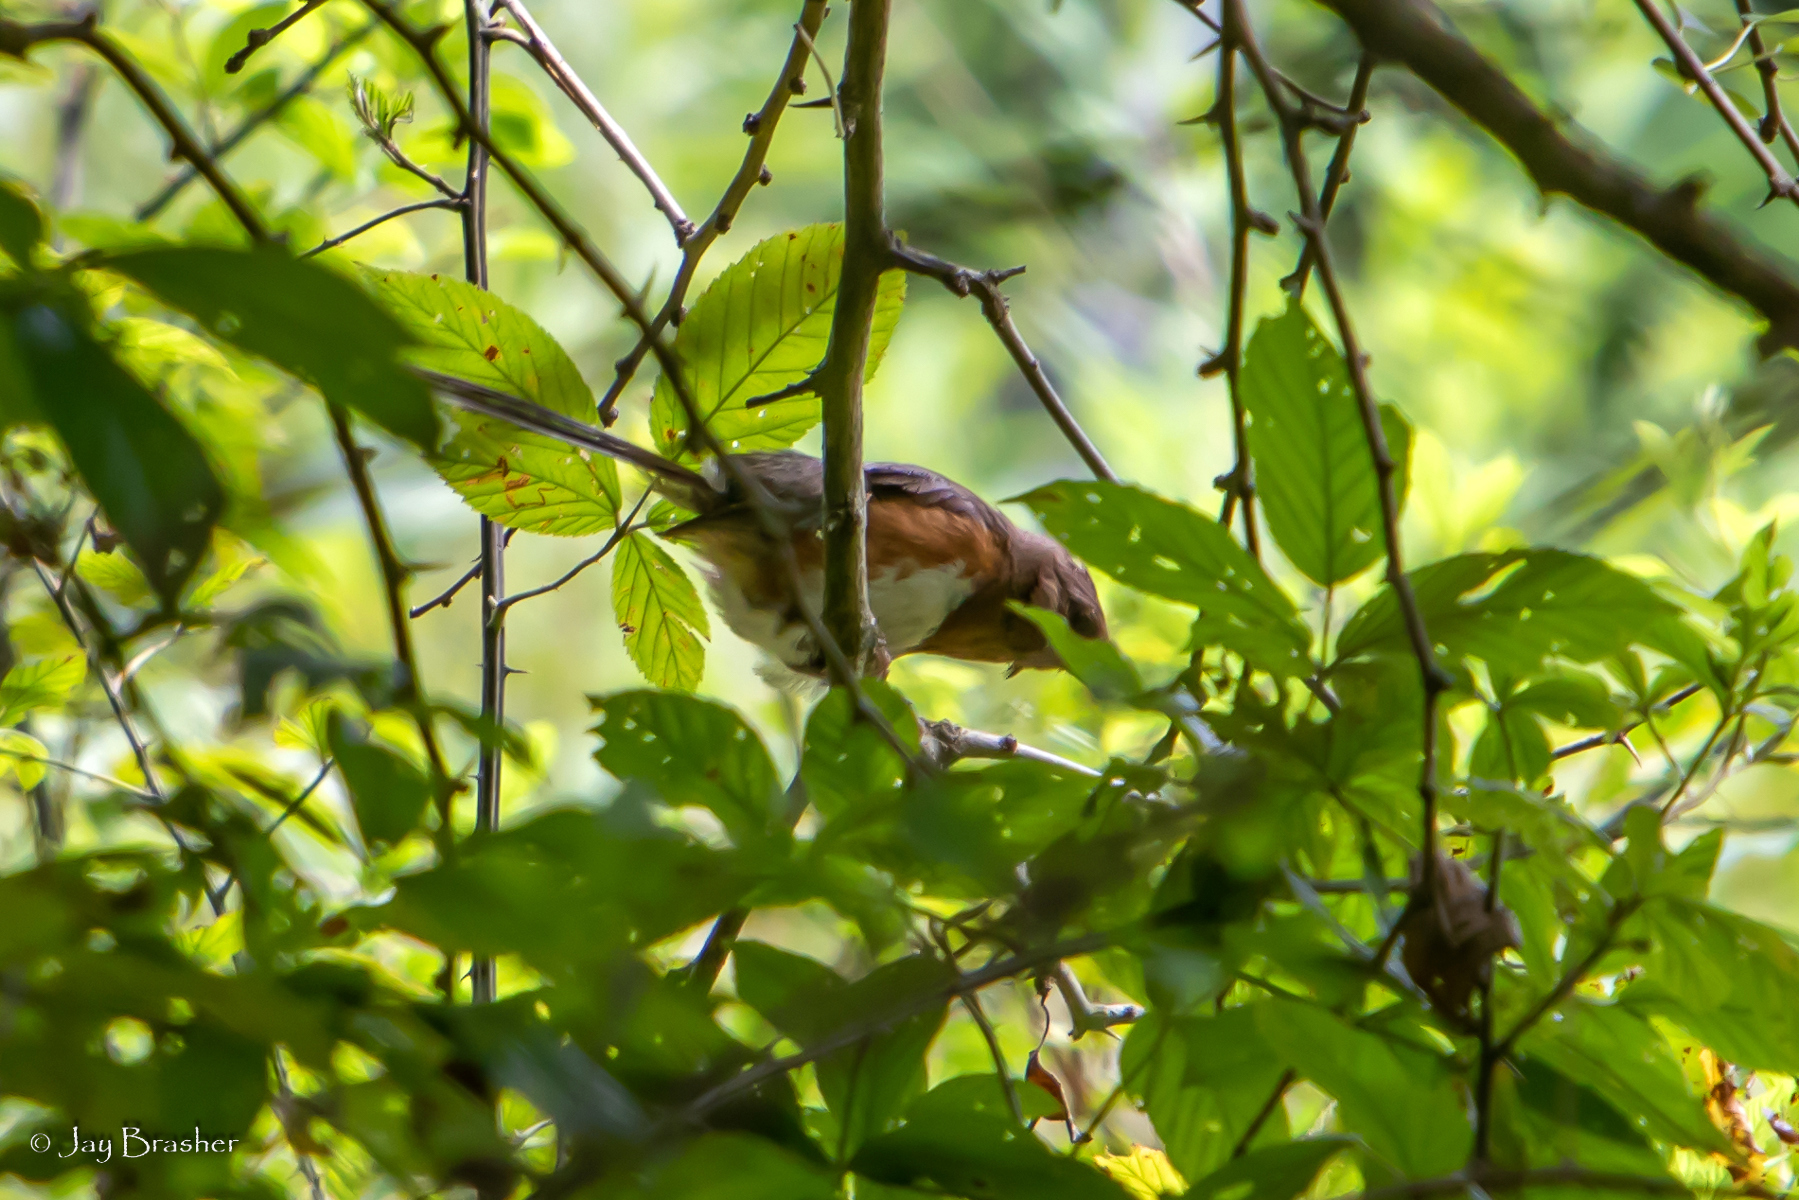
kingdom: Animalia
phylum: Chordata
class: Aves
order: Passeriformes
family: Passerellidae
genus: Pipilo
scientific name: Pipilo erythrophthalmus
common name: Eastern towhee
